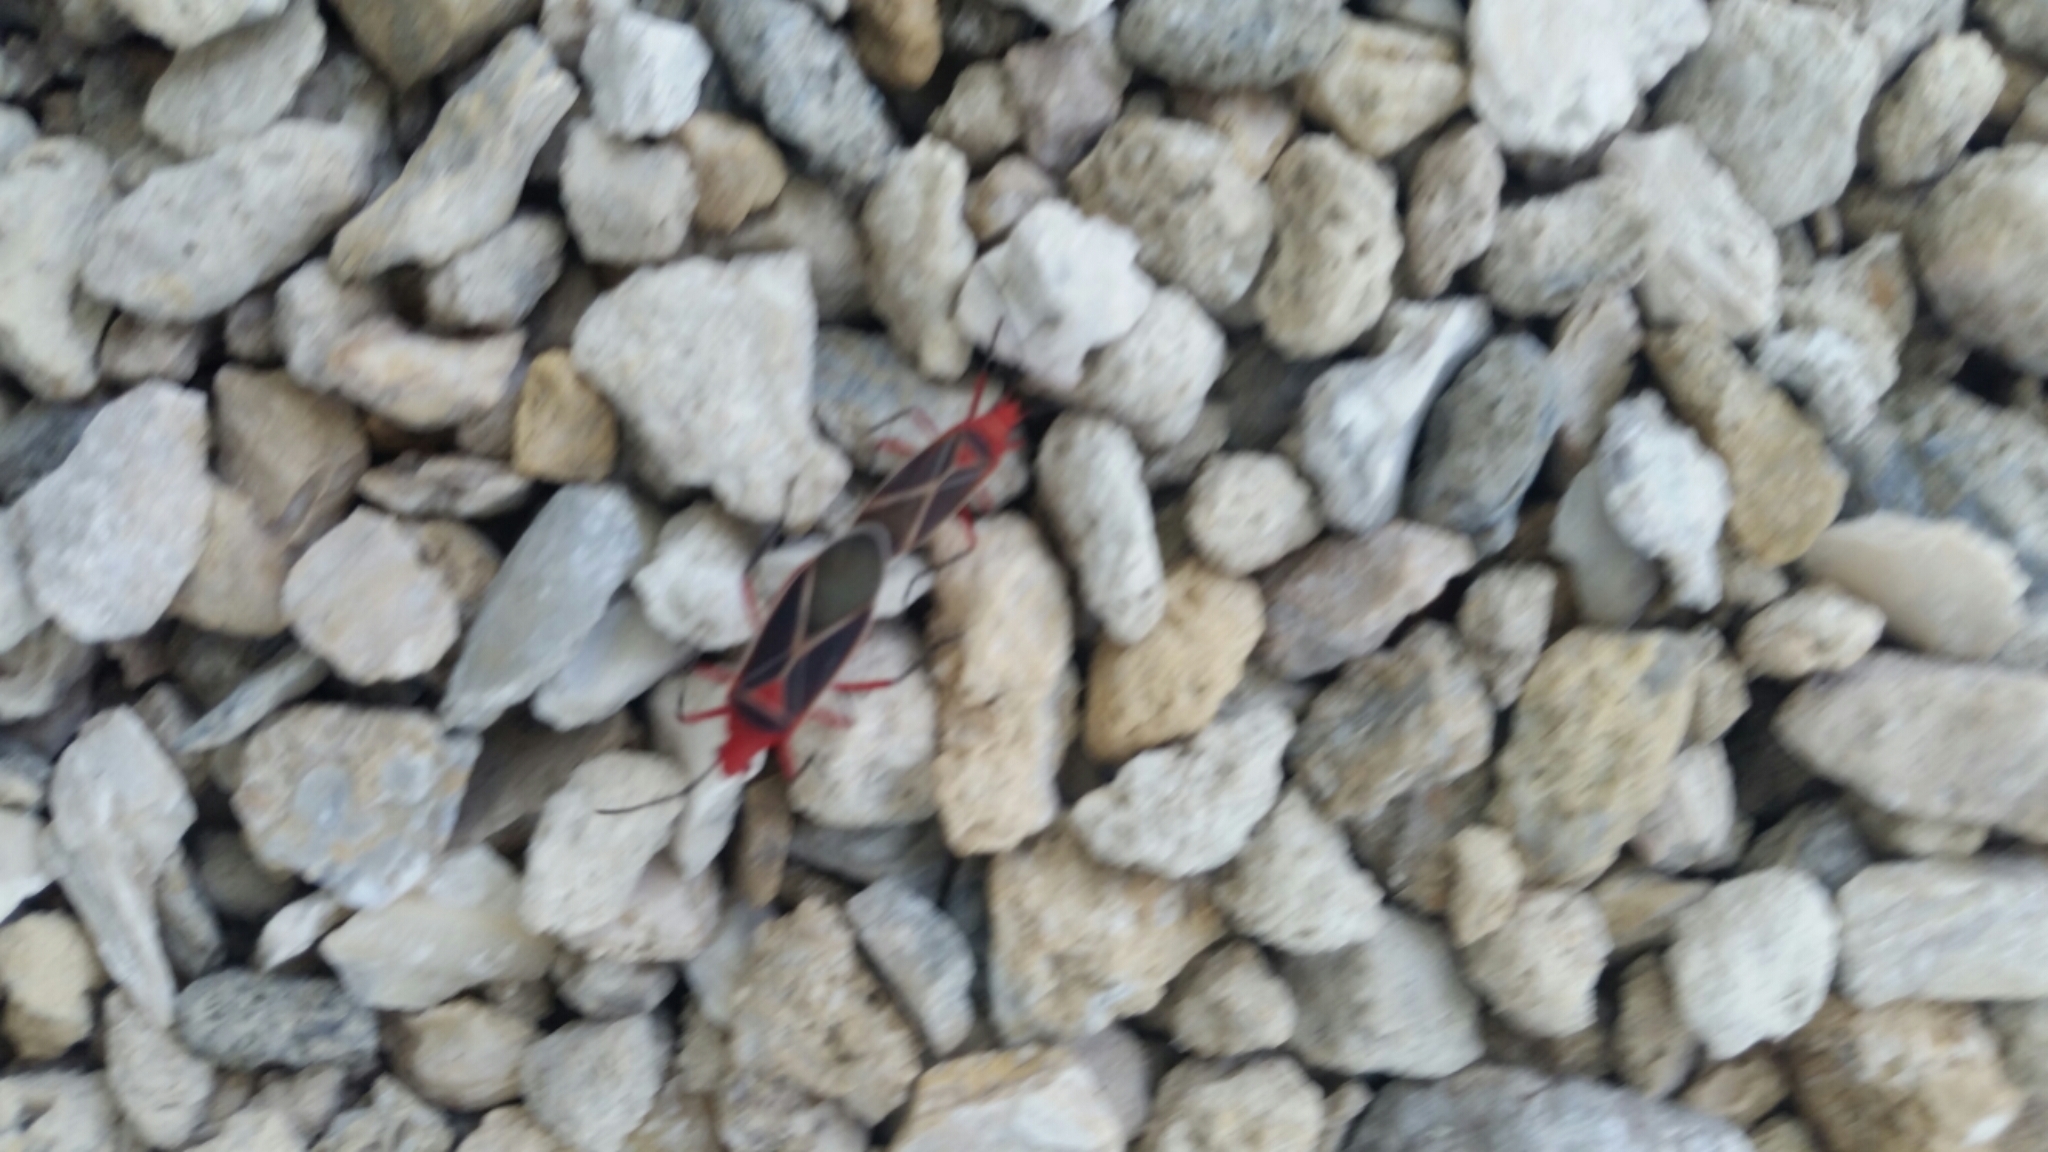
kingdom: Animalia
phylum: Arthropoda
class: Insecta
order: Hemiptera
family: Pyrrhocoridae
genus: Dysdercus
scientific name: Dysdercus suturellus
